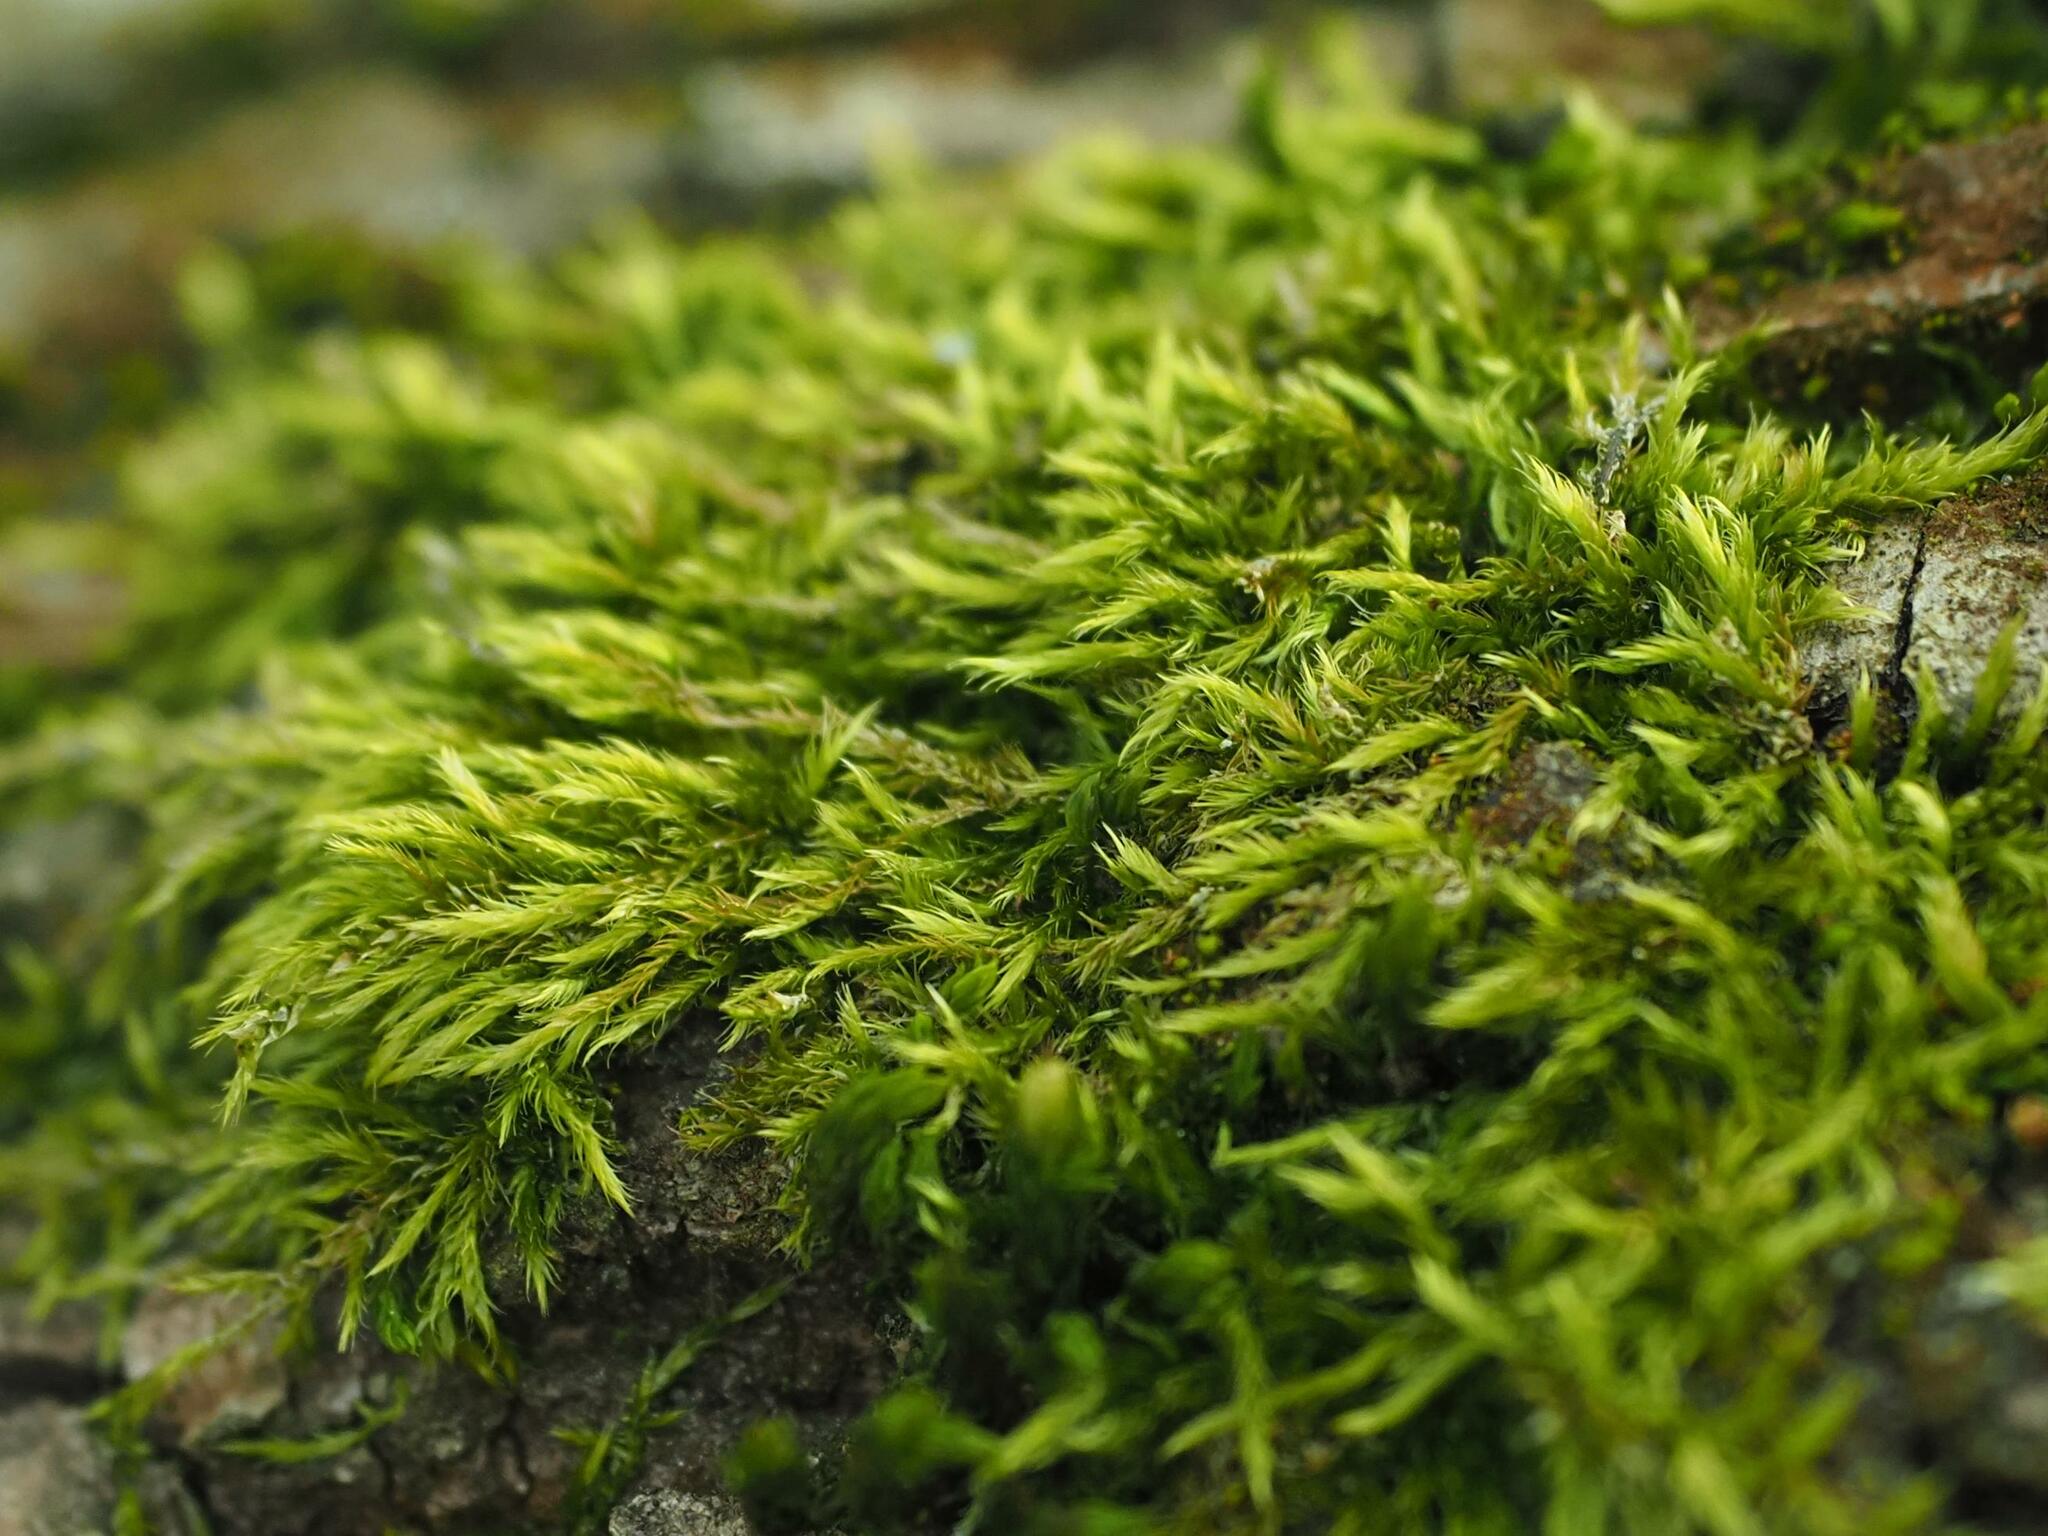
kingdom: Plantae
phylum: Bryophyta
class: Bryopsida
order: Hypnales
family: Brachytheciaceae
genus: Sciuro-hypnum
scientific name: Sciuro-hypnum populeum
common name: Matted feather-moss
